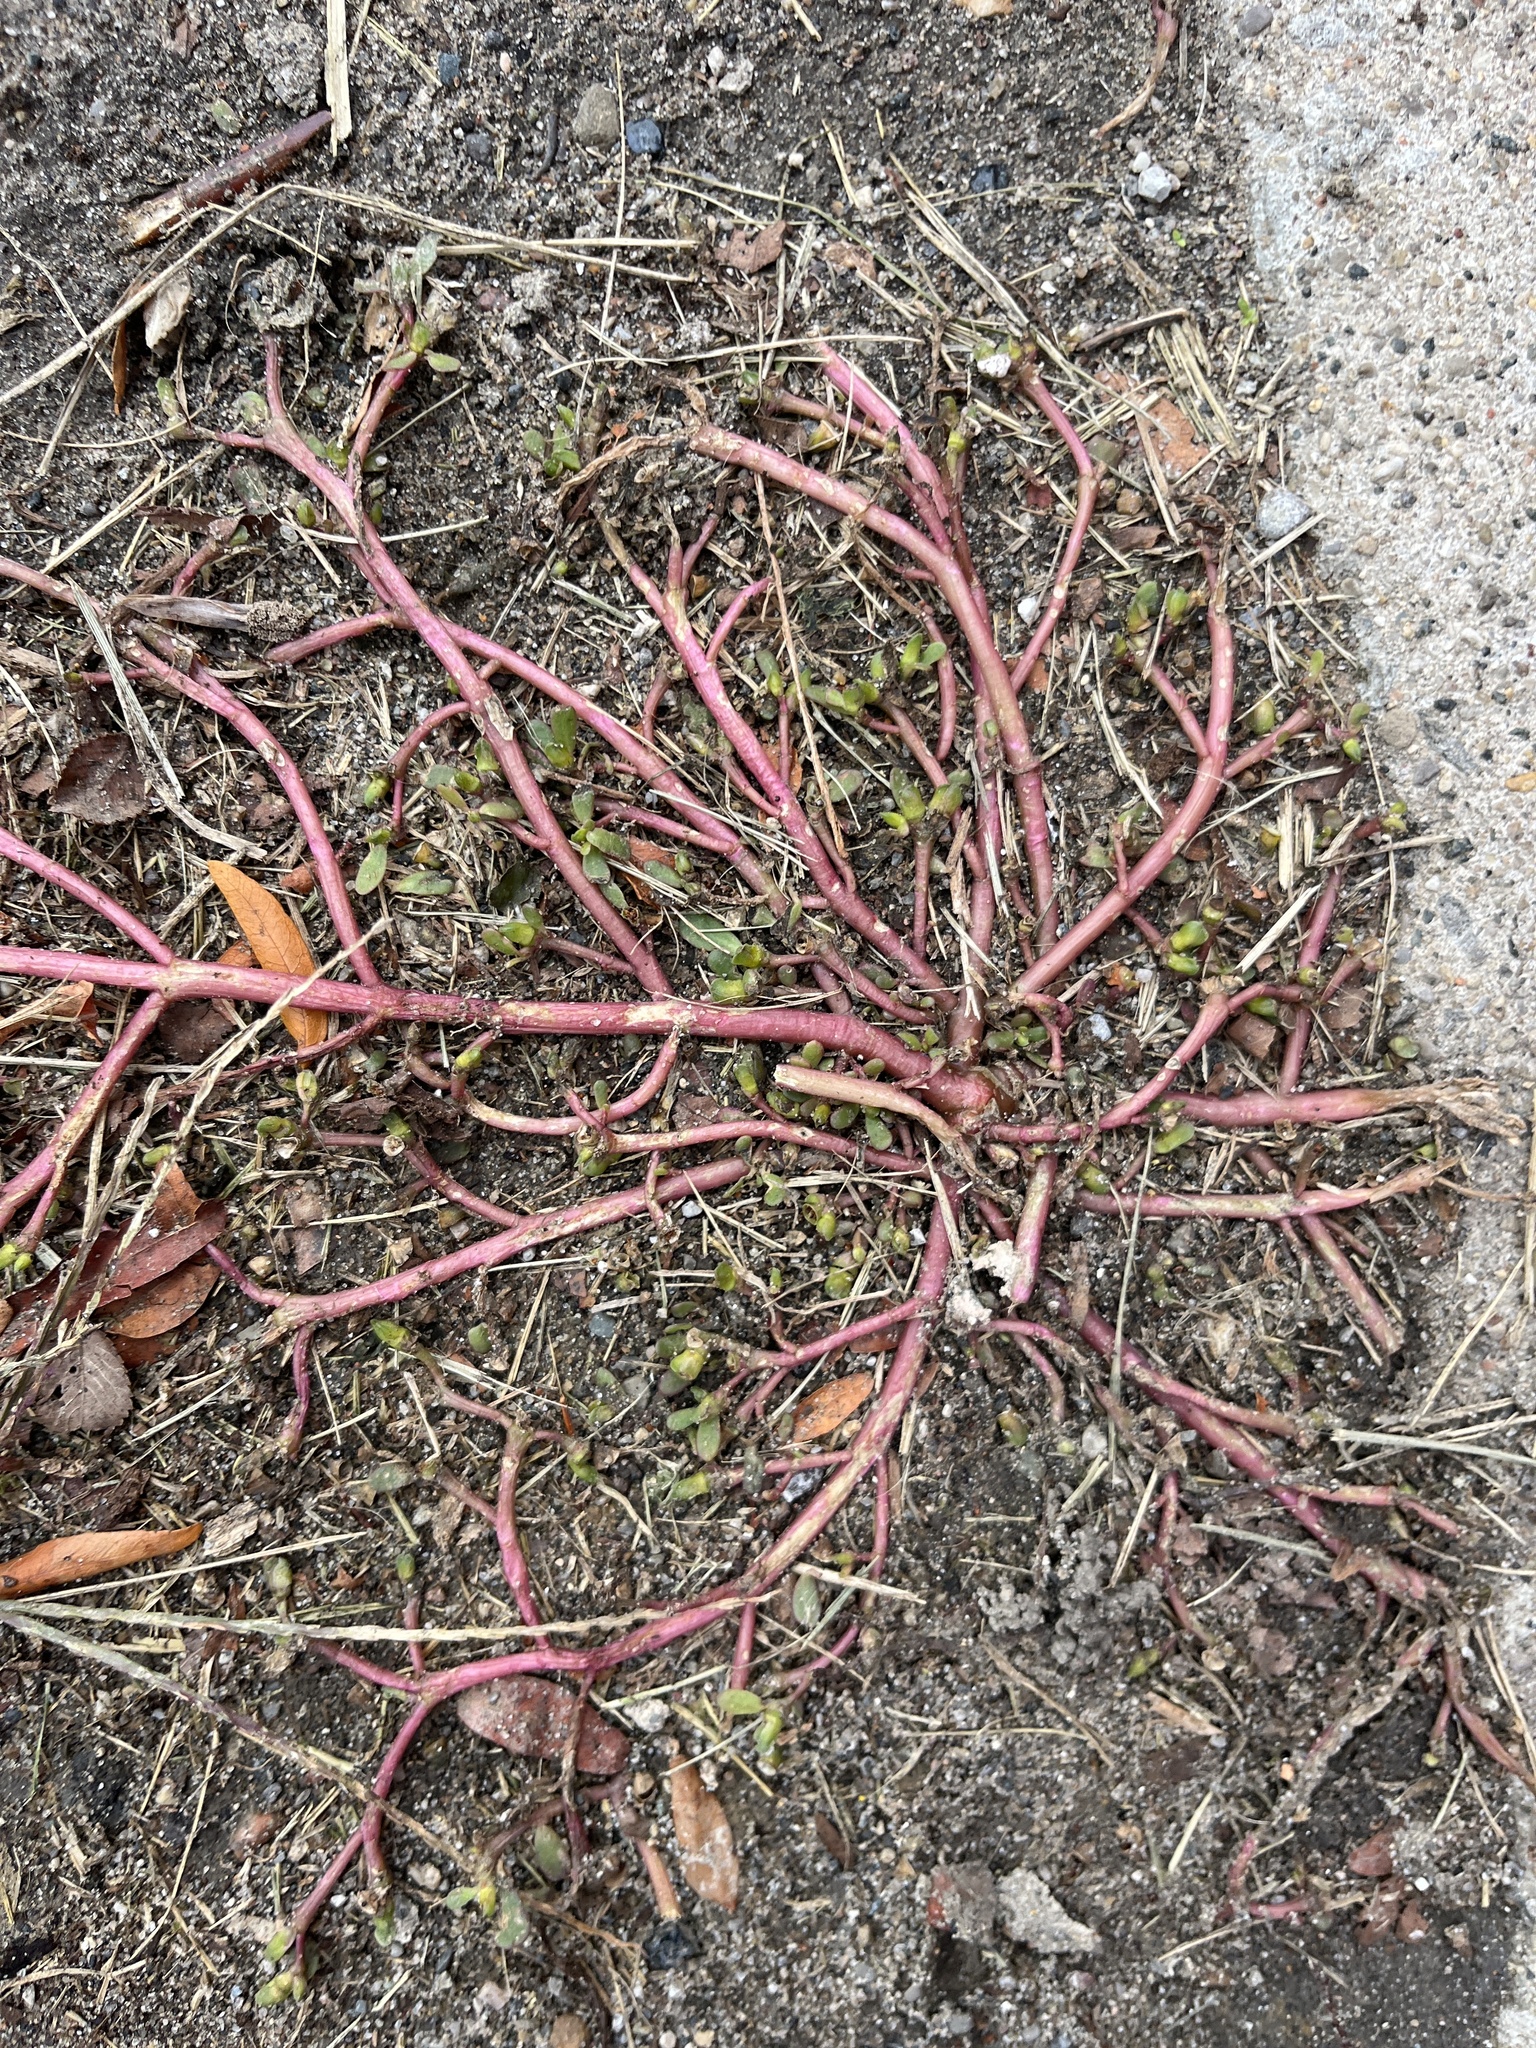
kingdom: Plantae
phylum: Tracheophyta
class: Magnoliopsida
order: Caryophyllales
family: Portulacaceae
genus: Portulaca
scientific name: Portulaca oleracea
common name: Common purslane
